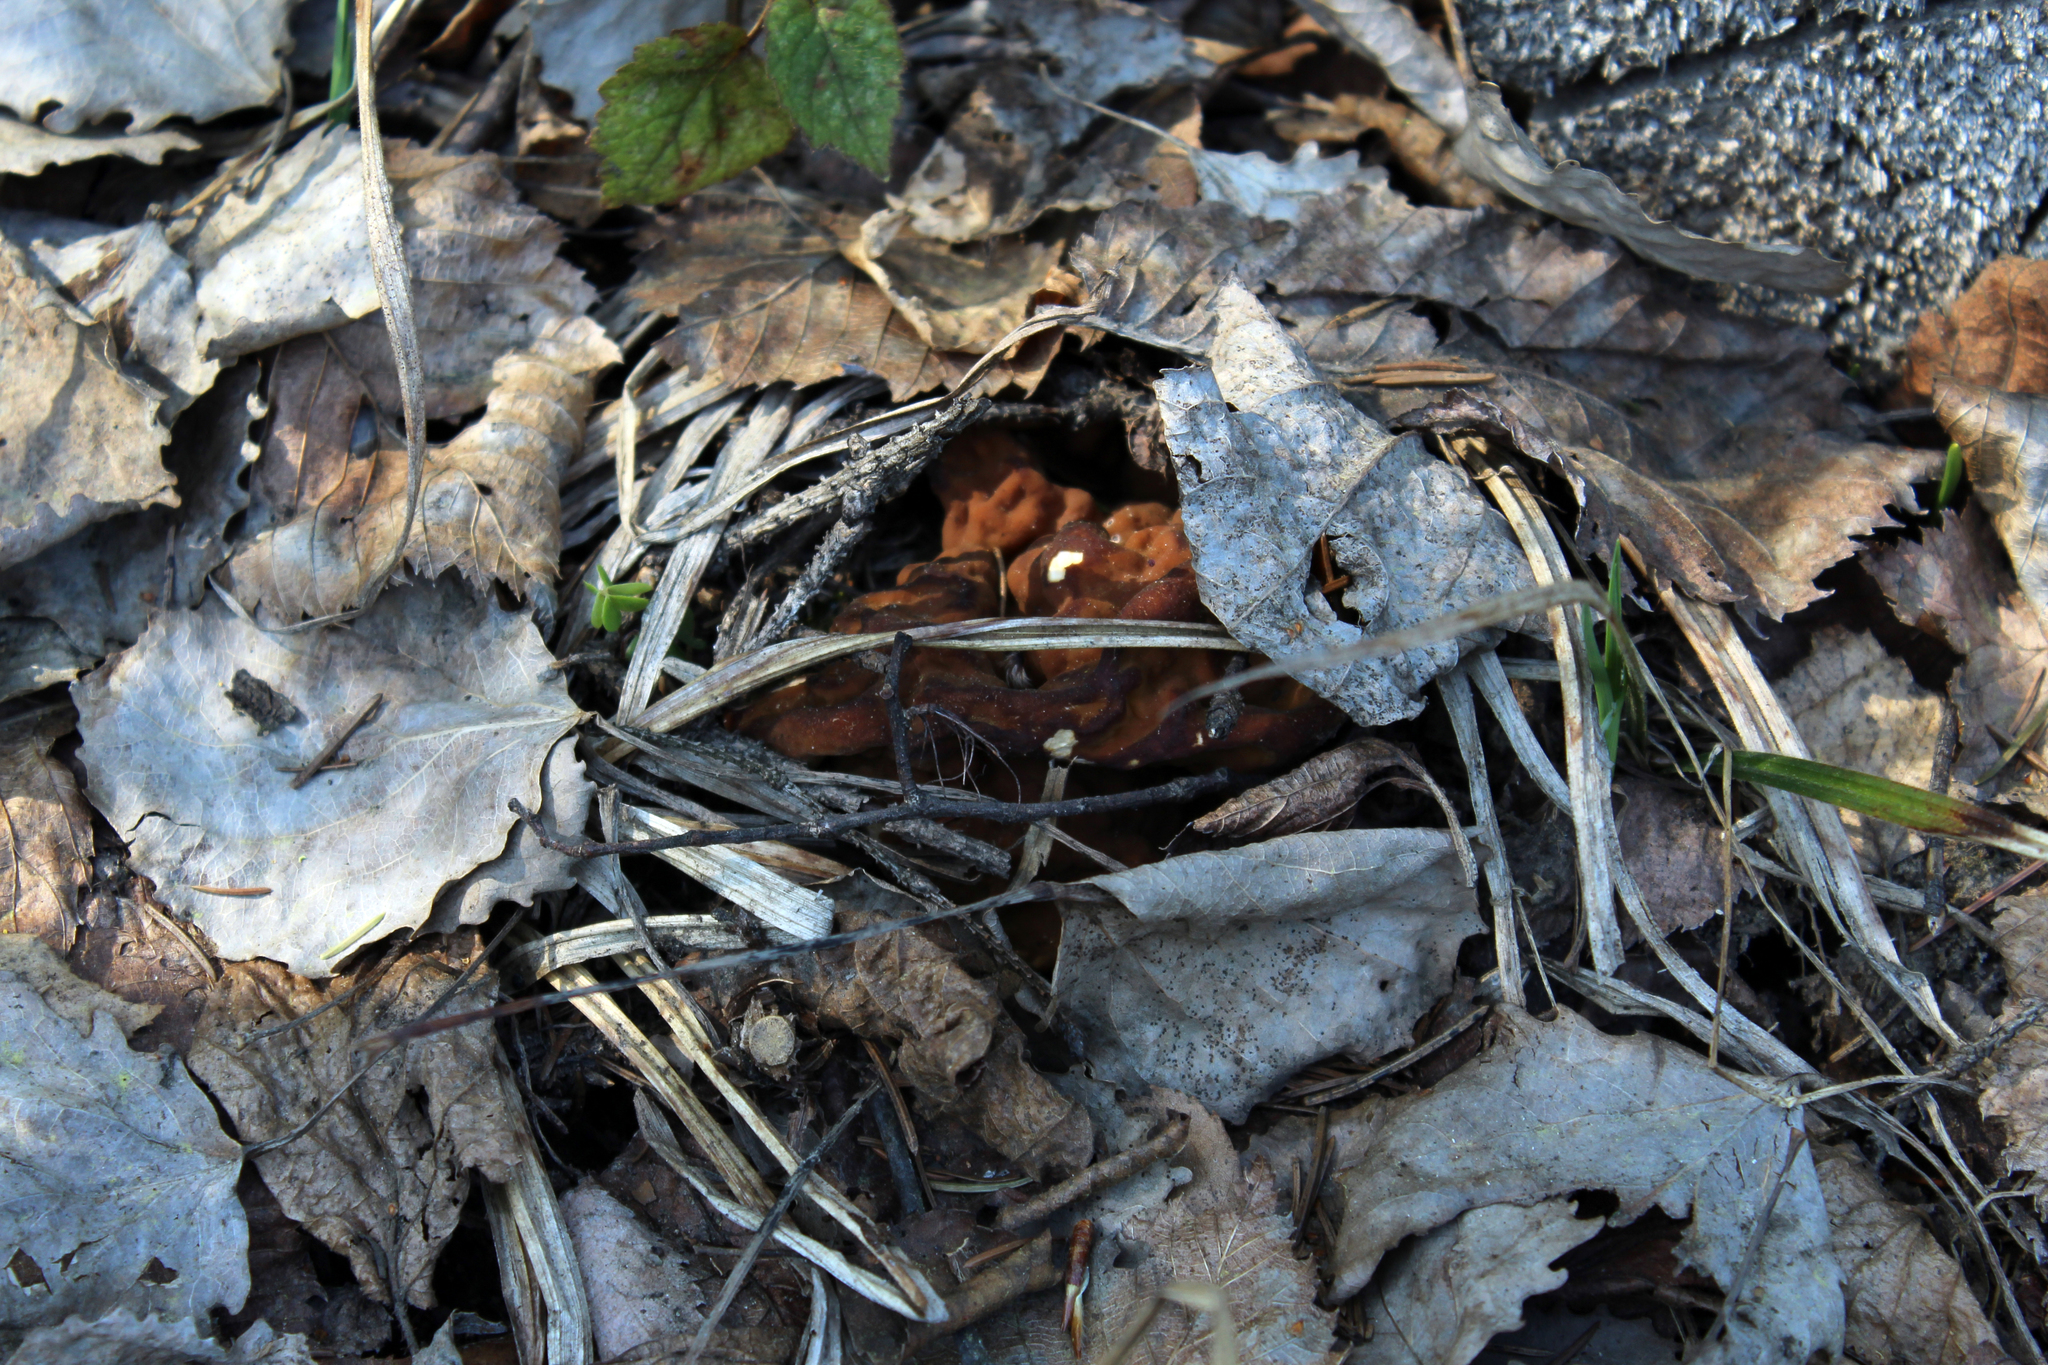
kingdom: Fungi
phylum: Ascomycota
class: Pezizomycetes
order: Pezizales
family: Discinaceae
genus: Gyromitra
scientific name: Gyromitra gigas
